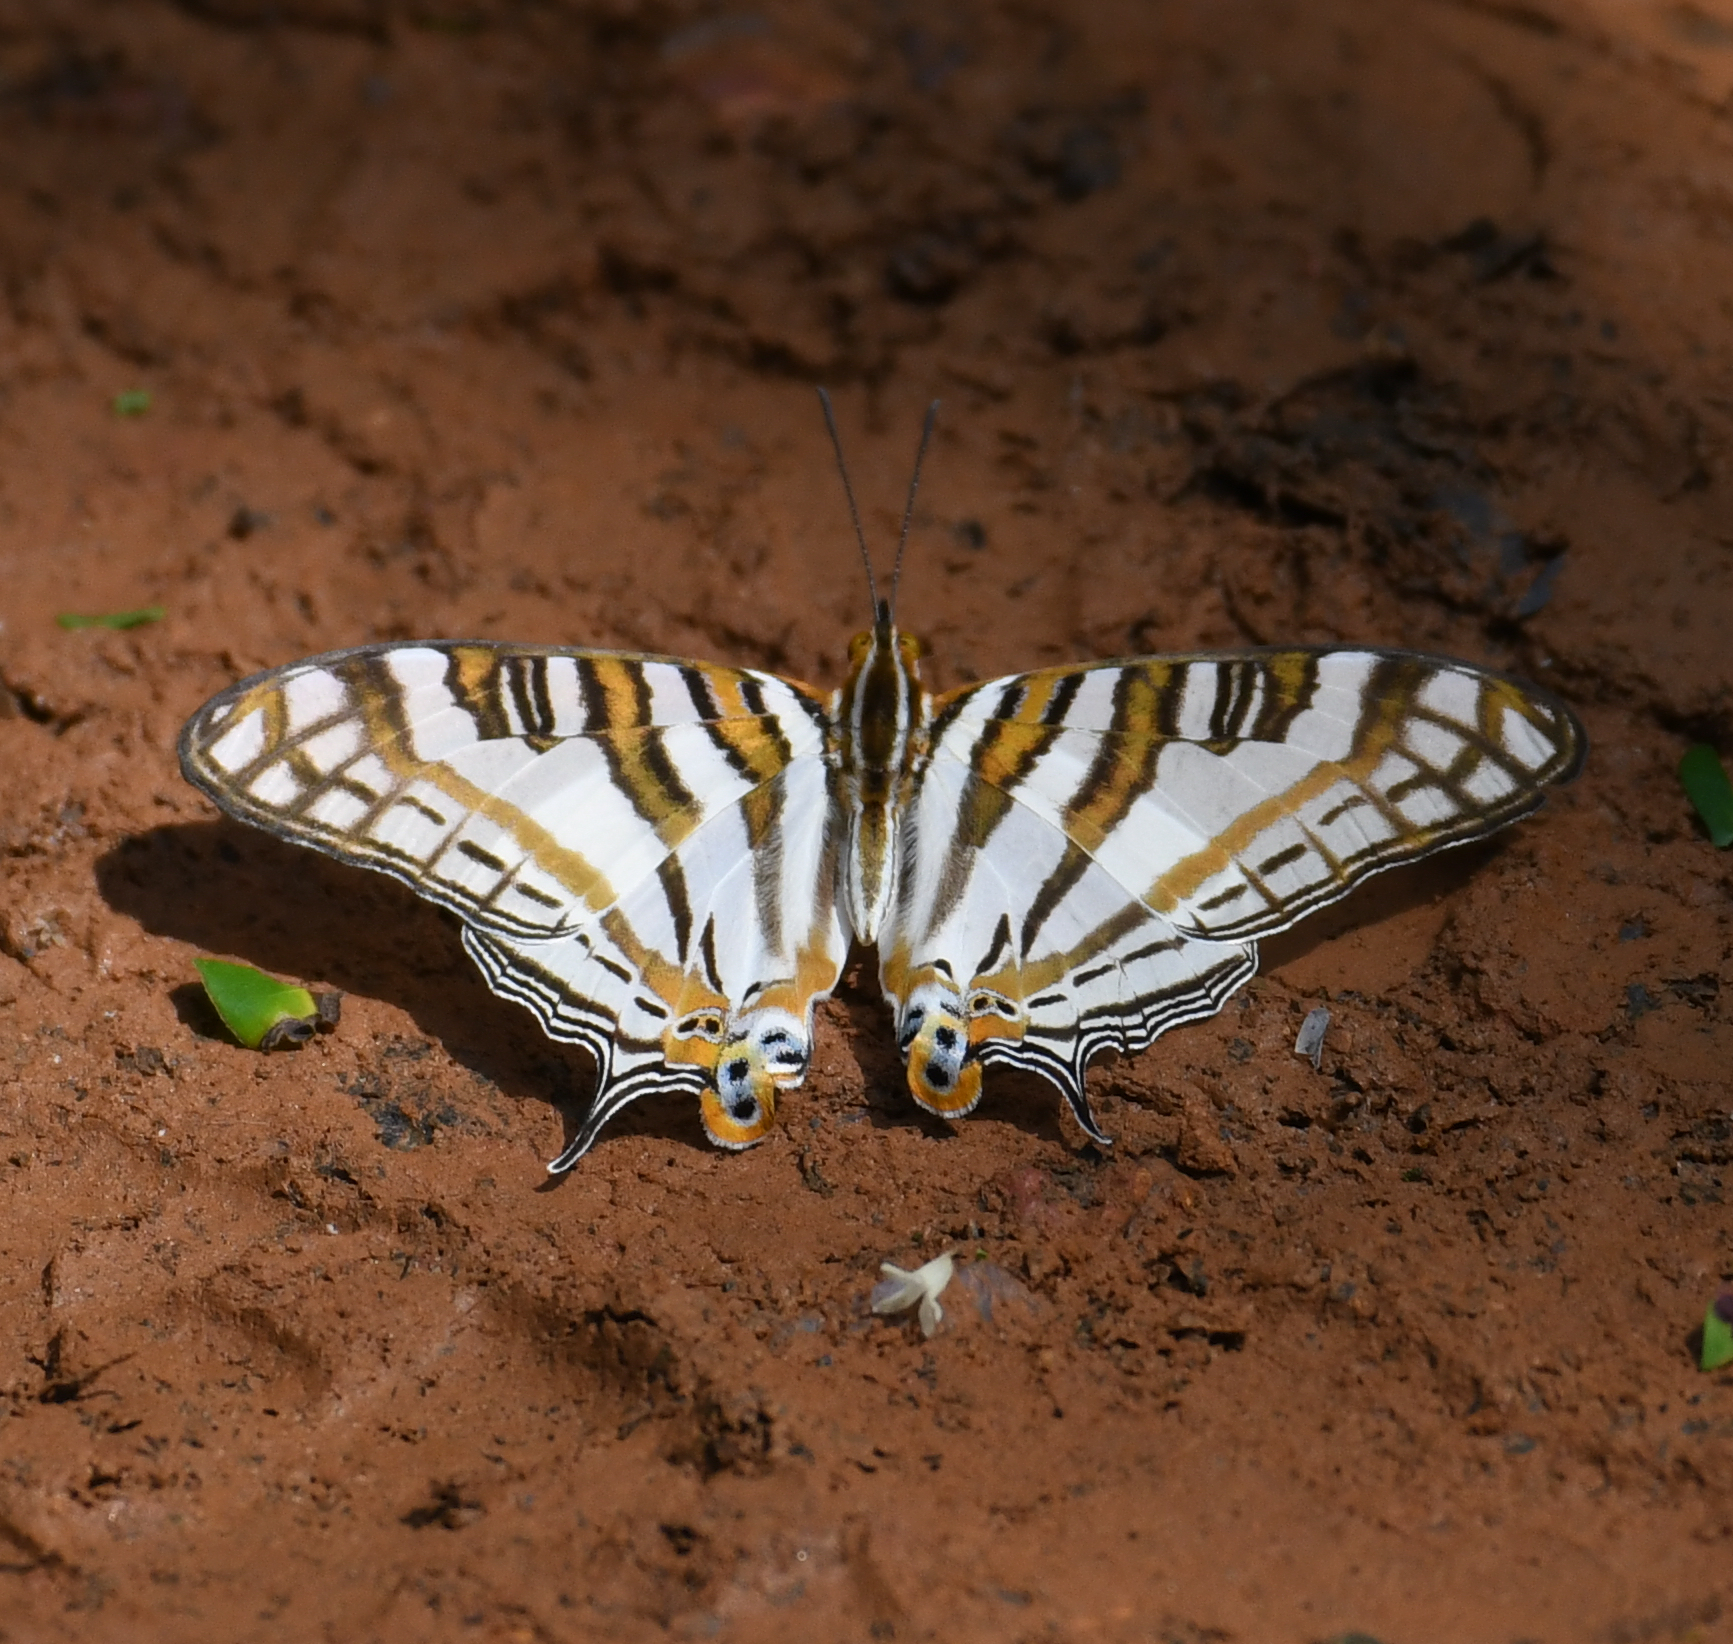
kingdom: Animalia
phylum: Arthropoda
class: Insecta
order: Lepidoptera
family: Nymphalidae
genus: Marpesia
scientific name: Marpesia camillus
